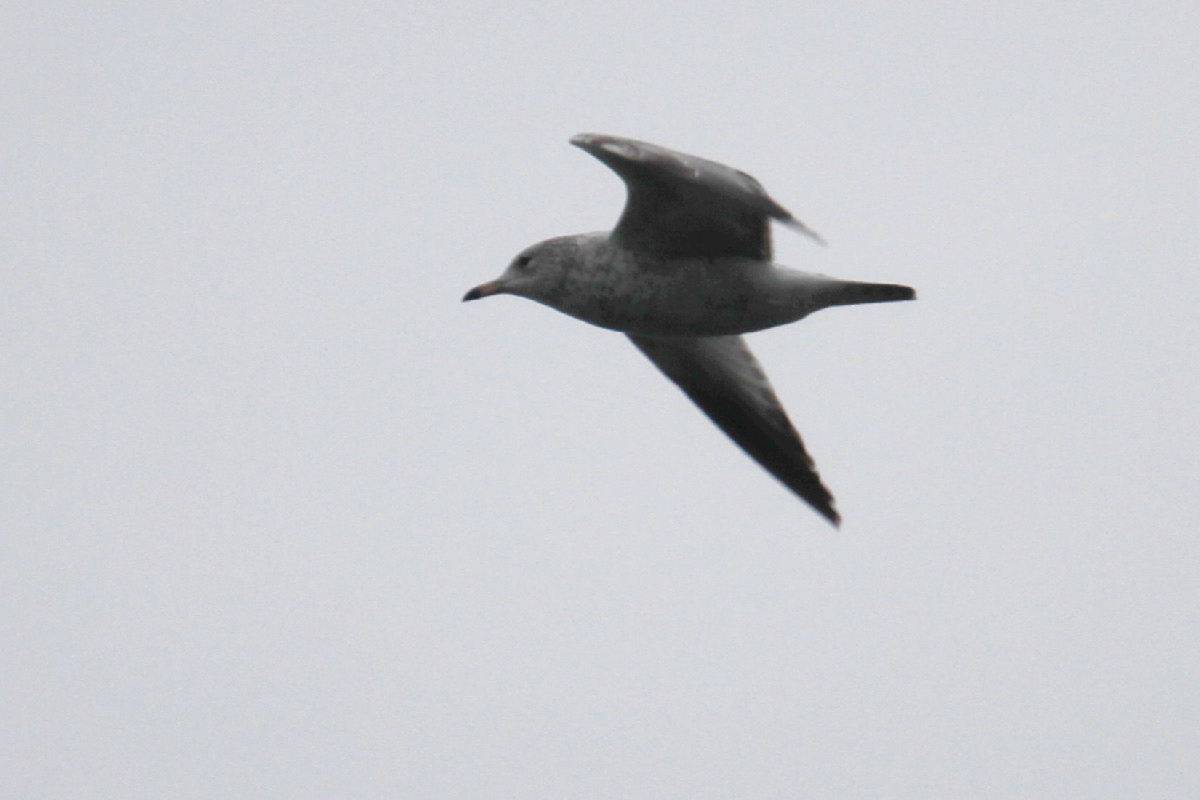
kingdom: Animalia
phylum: Chordata
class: Aves
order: Charadriiformes
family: Laridae
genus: Larus
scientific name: Larus delawarensis
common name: Ring-billed gull
